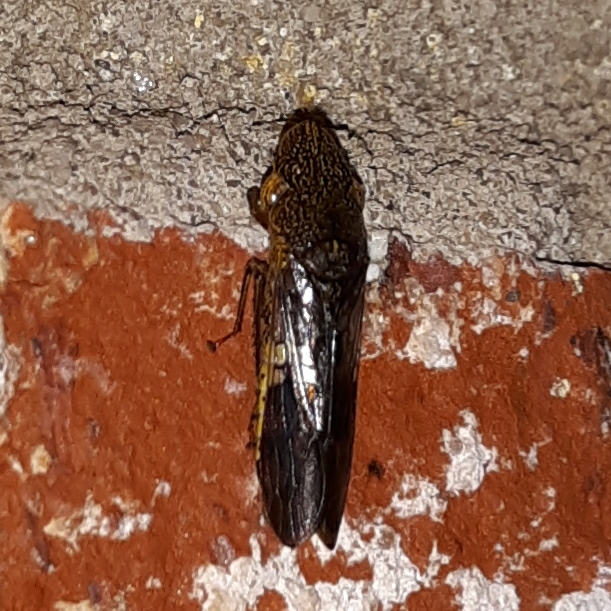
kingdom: Animalia
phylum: Arthropoda
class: Insecta
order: Hemiptera
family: Cicadellidae
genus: Homalodisca
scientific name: Homalodisca vitripennis
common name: Glassy-winged sharpshooter
